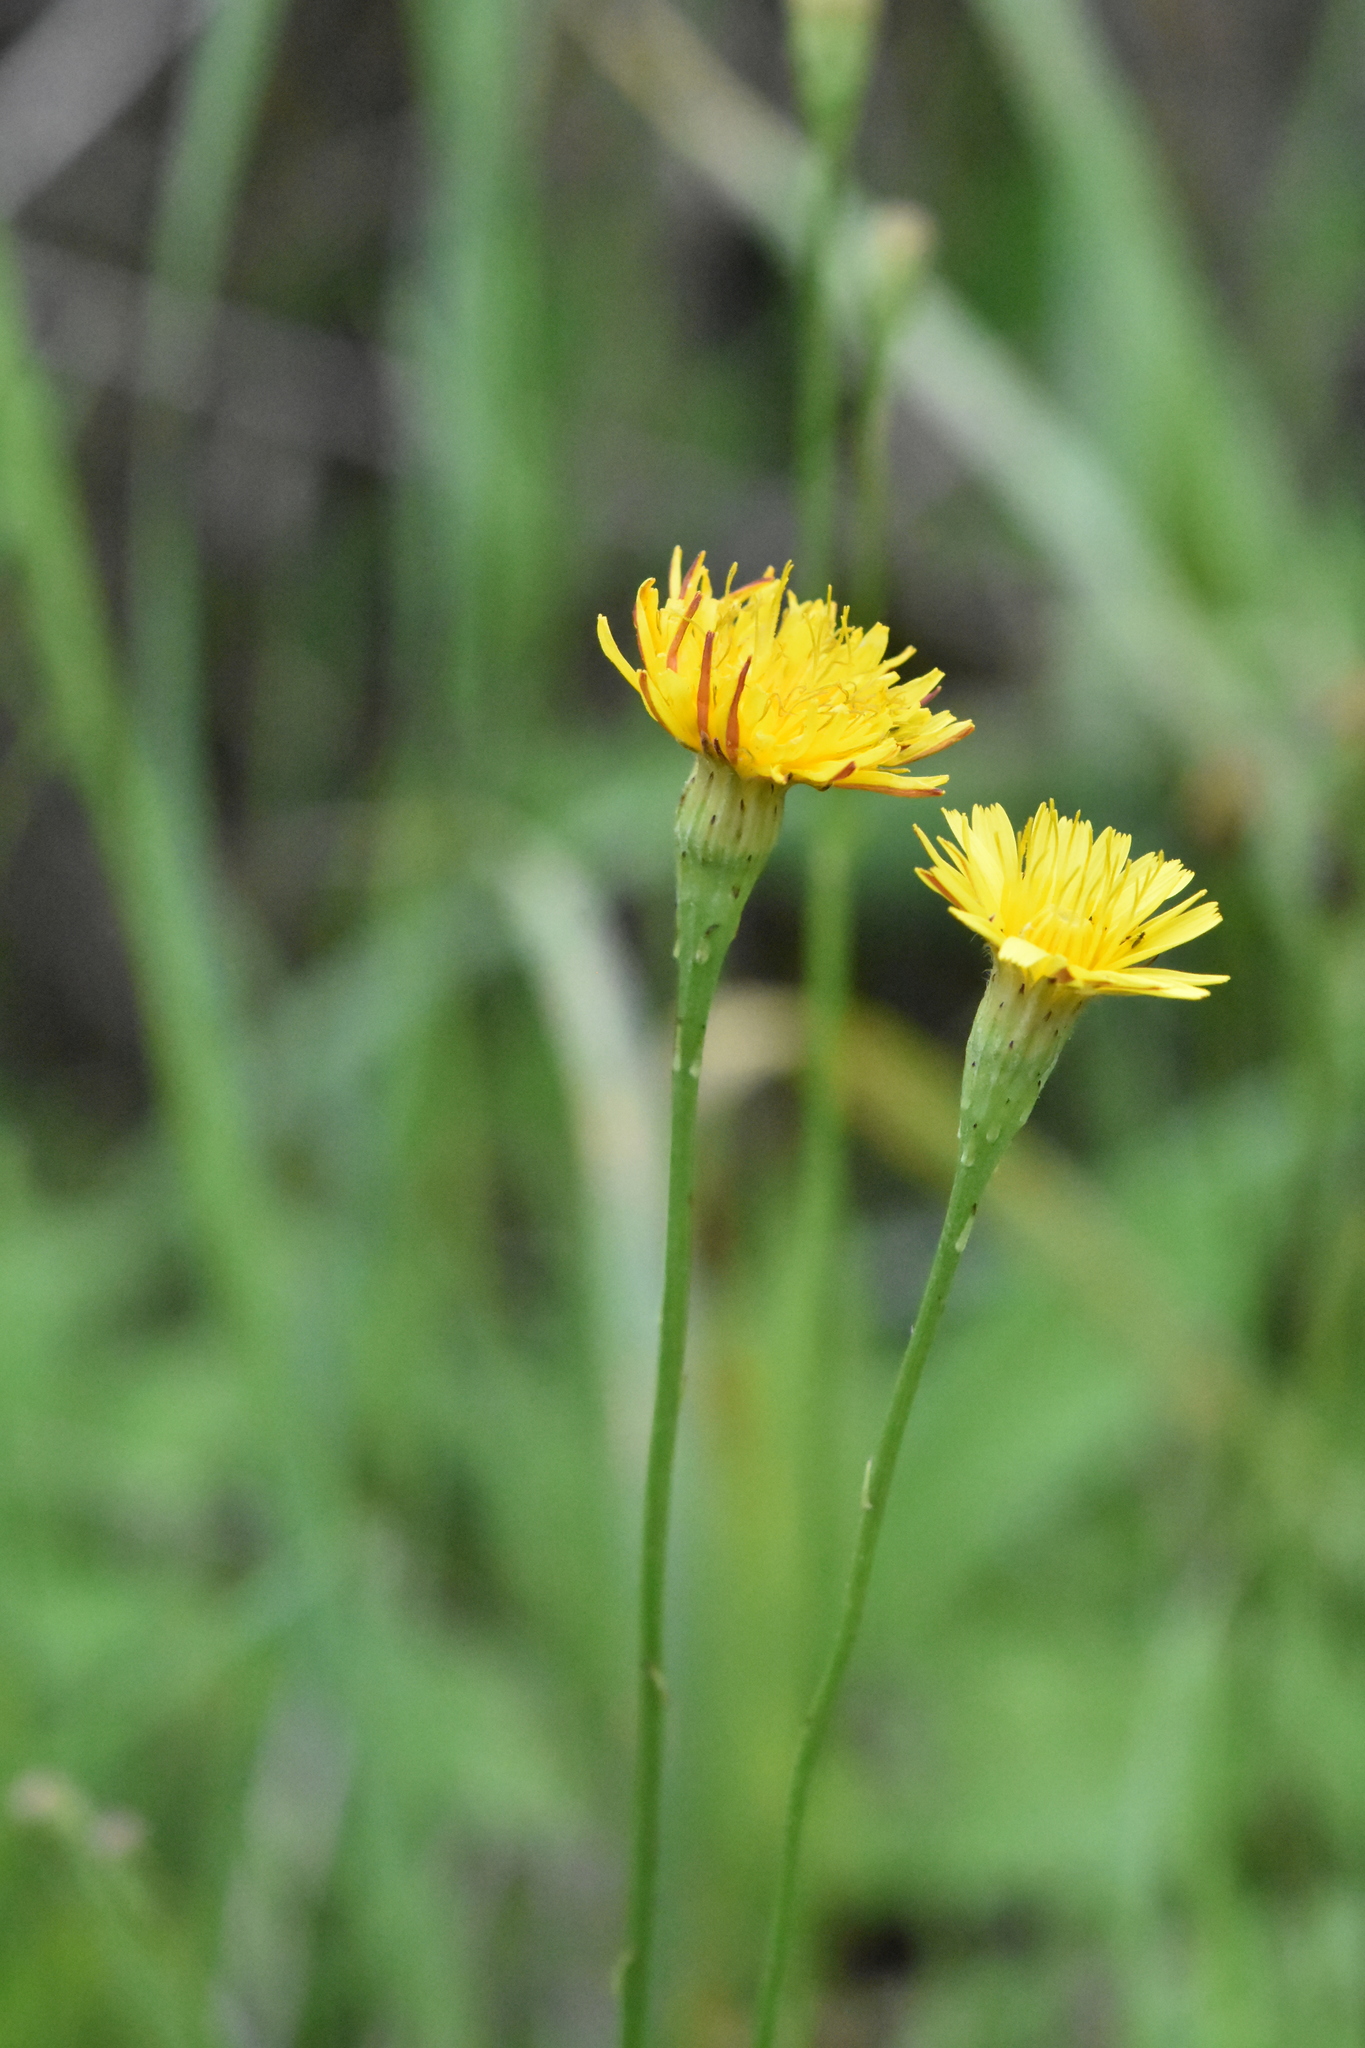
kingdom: Plantae
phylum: Tracheophyta
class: Magnoliopsida
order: Asterales
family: Asteraceae
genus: Scorzoneroides
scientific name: Scorzoneroides autumnalis
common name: Autumn hawkbit
